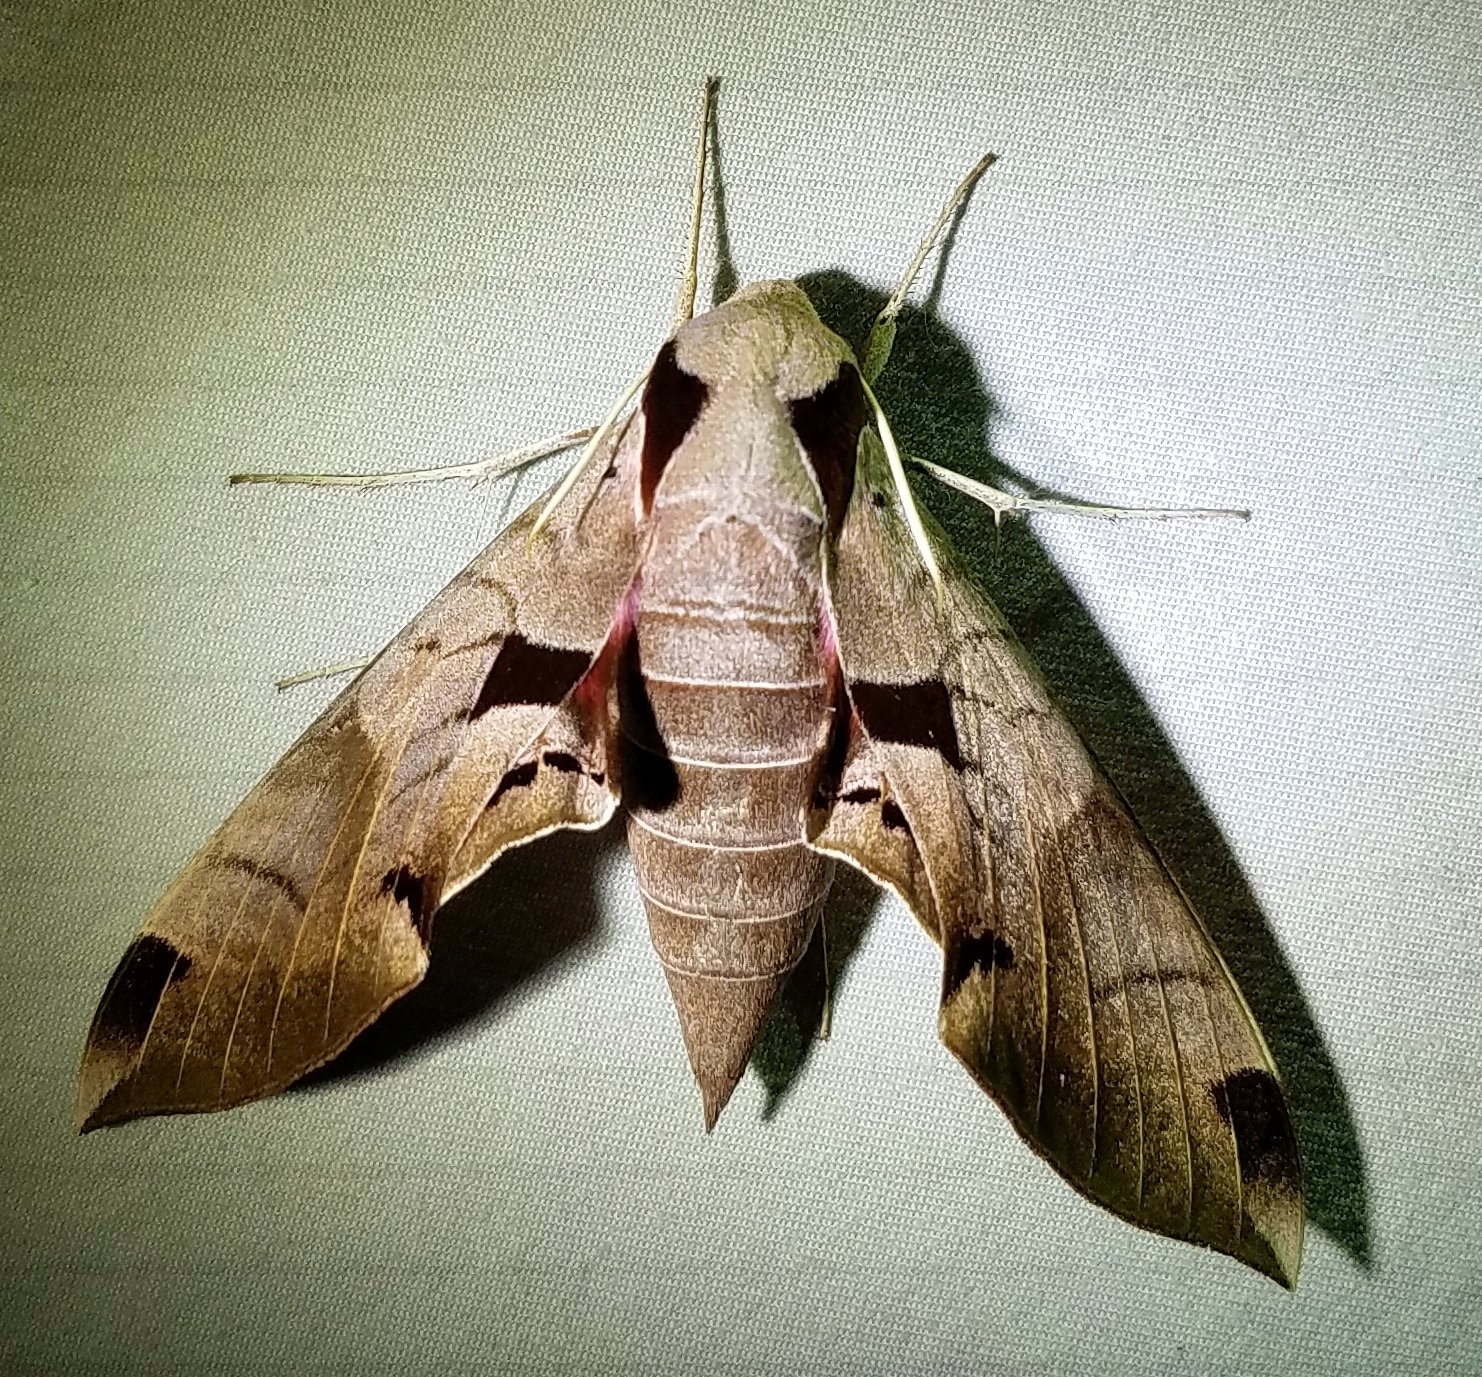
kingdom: Animalia
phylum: Arthropoda
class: Insecta
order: Lepidoptera
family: Sphingidae
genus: Eumorpha
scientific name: Eumorpha achemon
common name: Achemon sphinx
